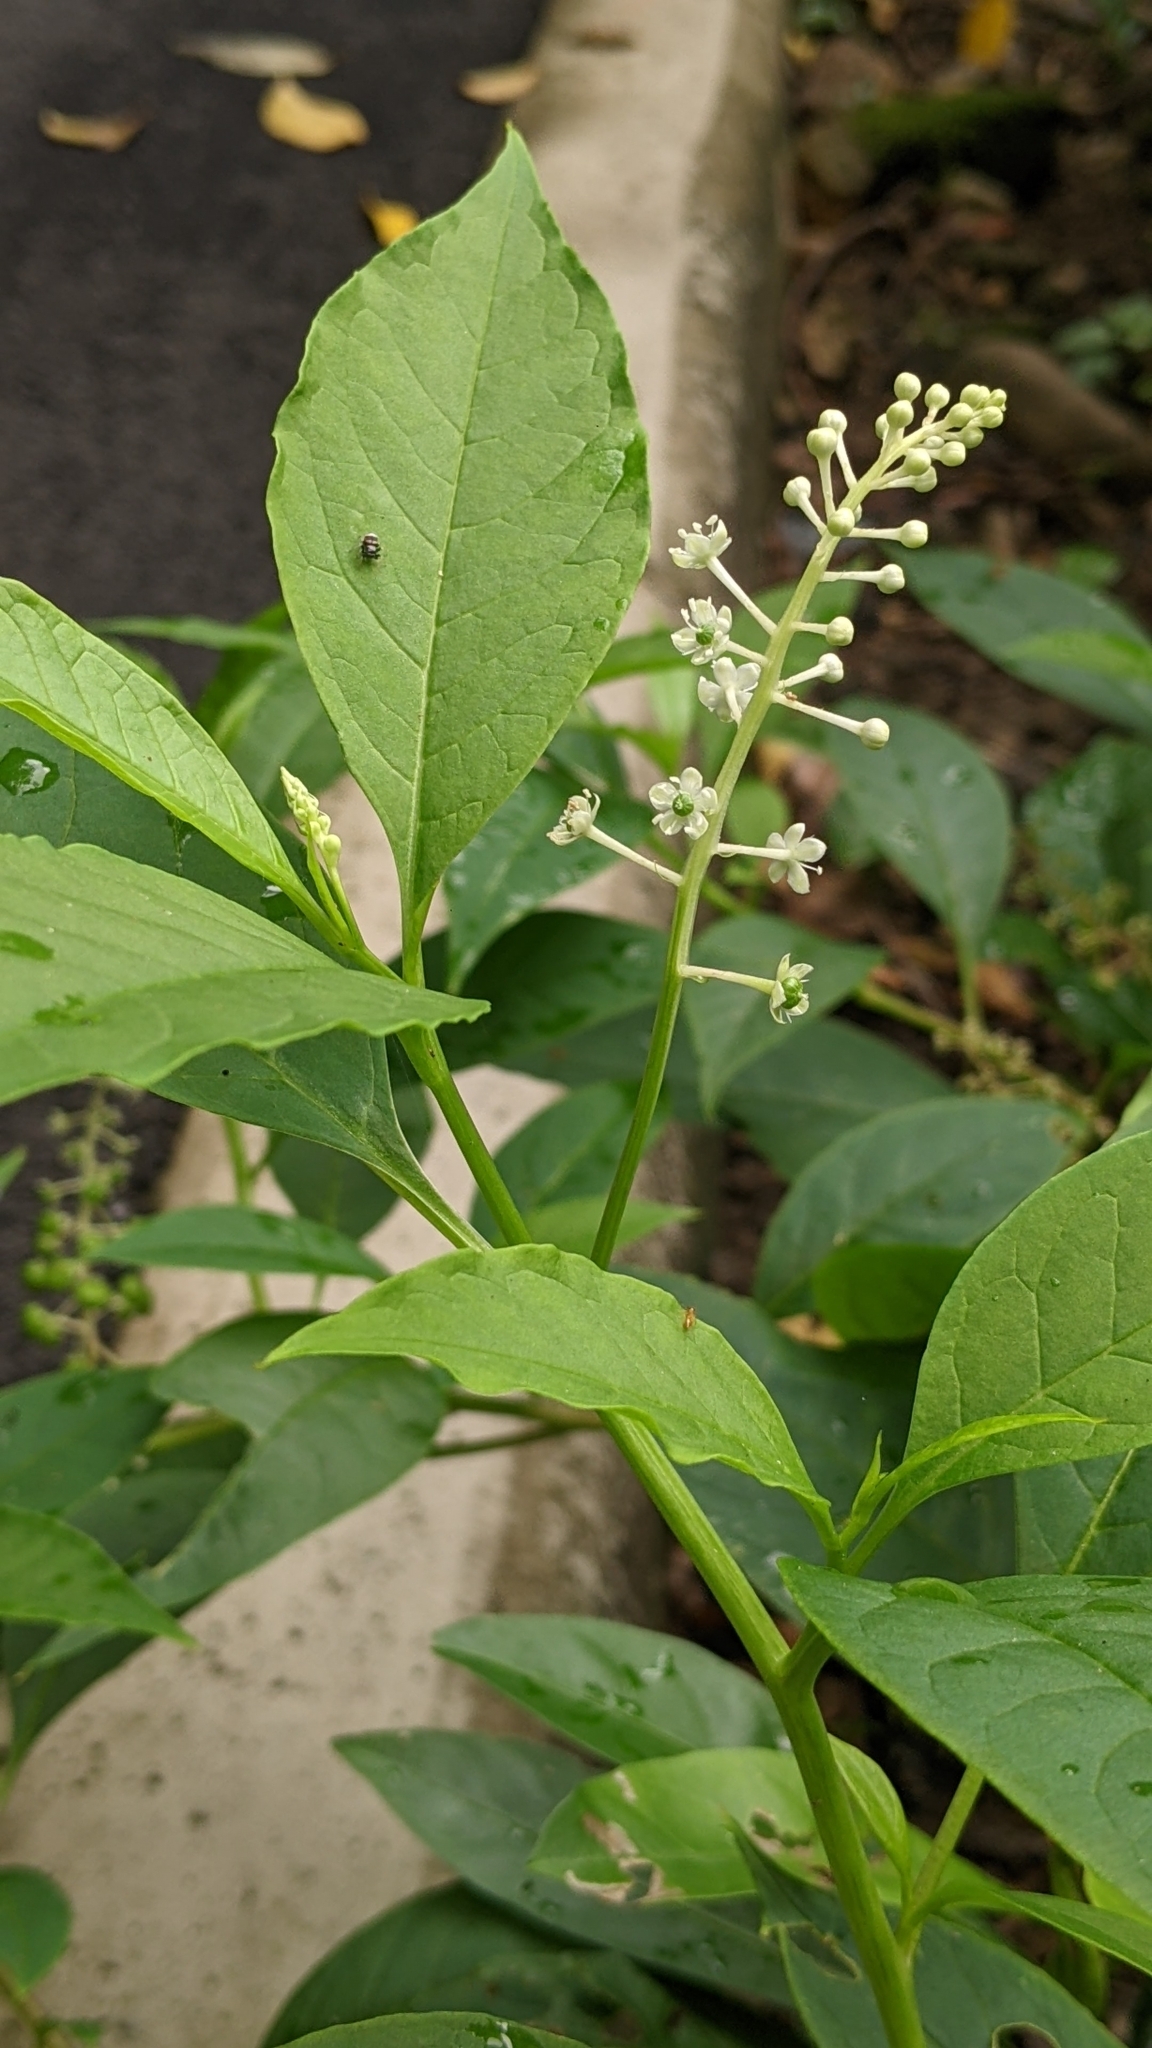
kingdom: Plantae
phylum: Tracheophyta
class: Magnoliopsida
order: Caryophyllales
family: Phytolaccaceae
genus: Phytolacca
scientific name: Phytolacca americana
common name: American pokeweed
